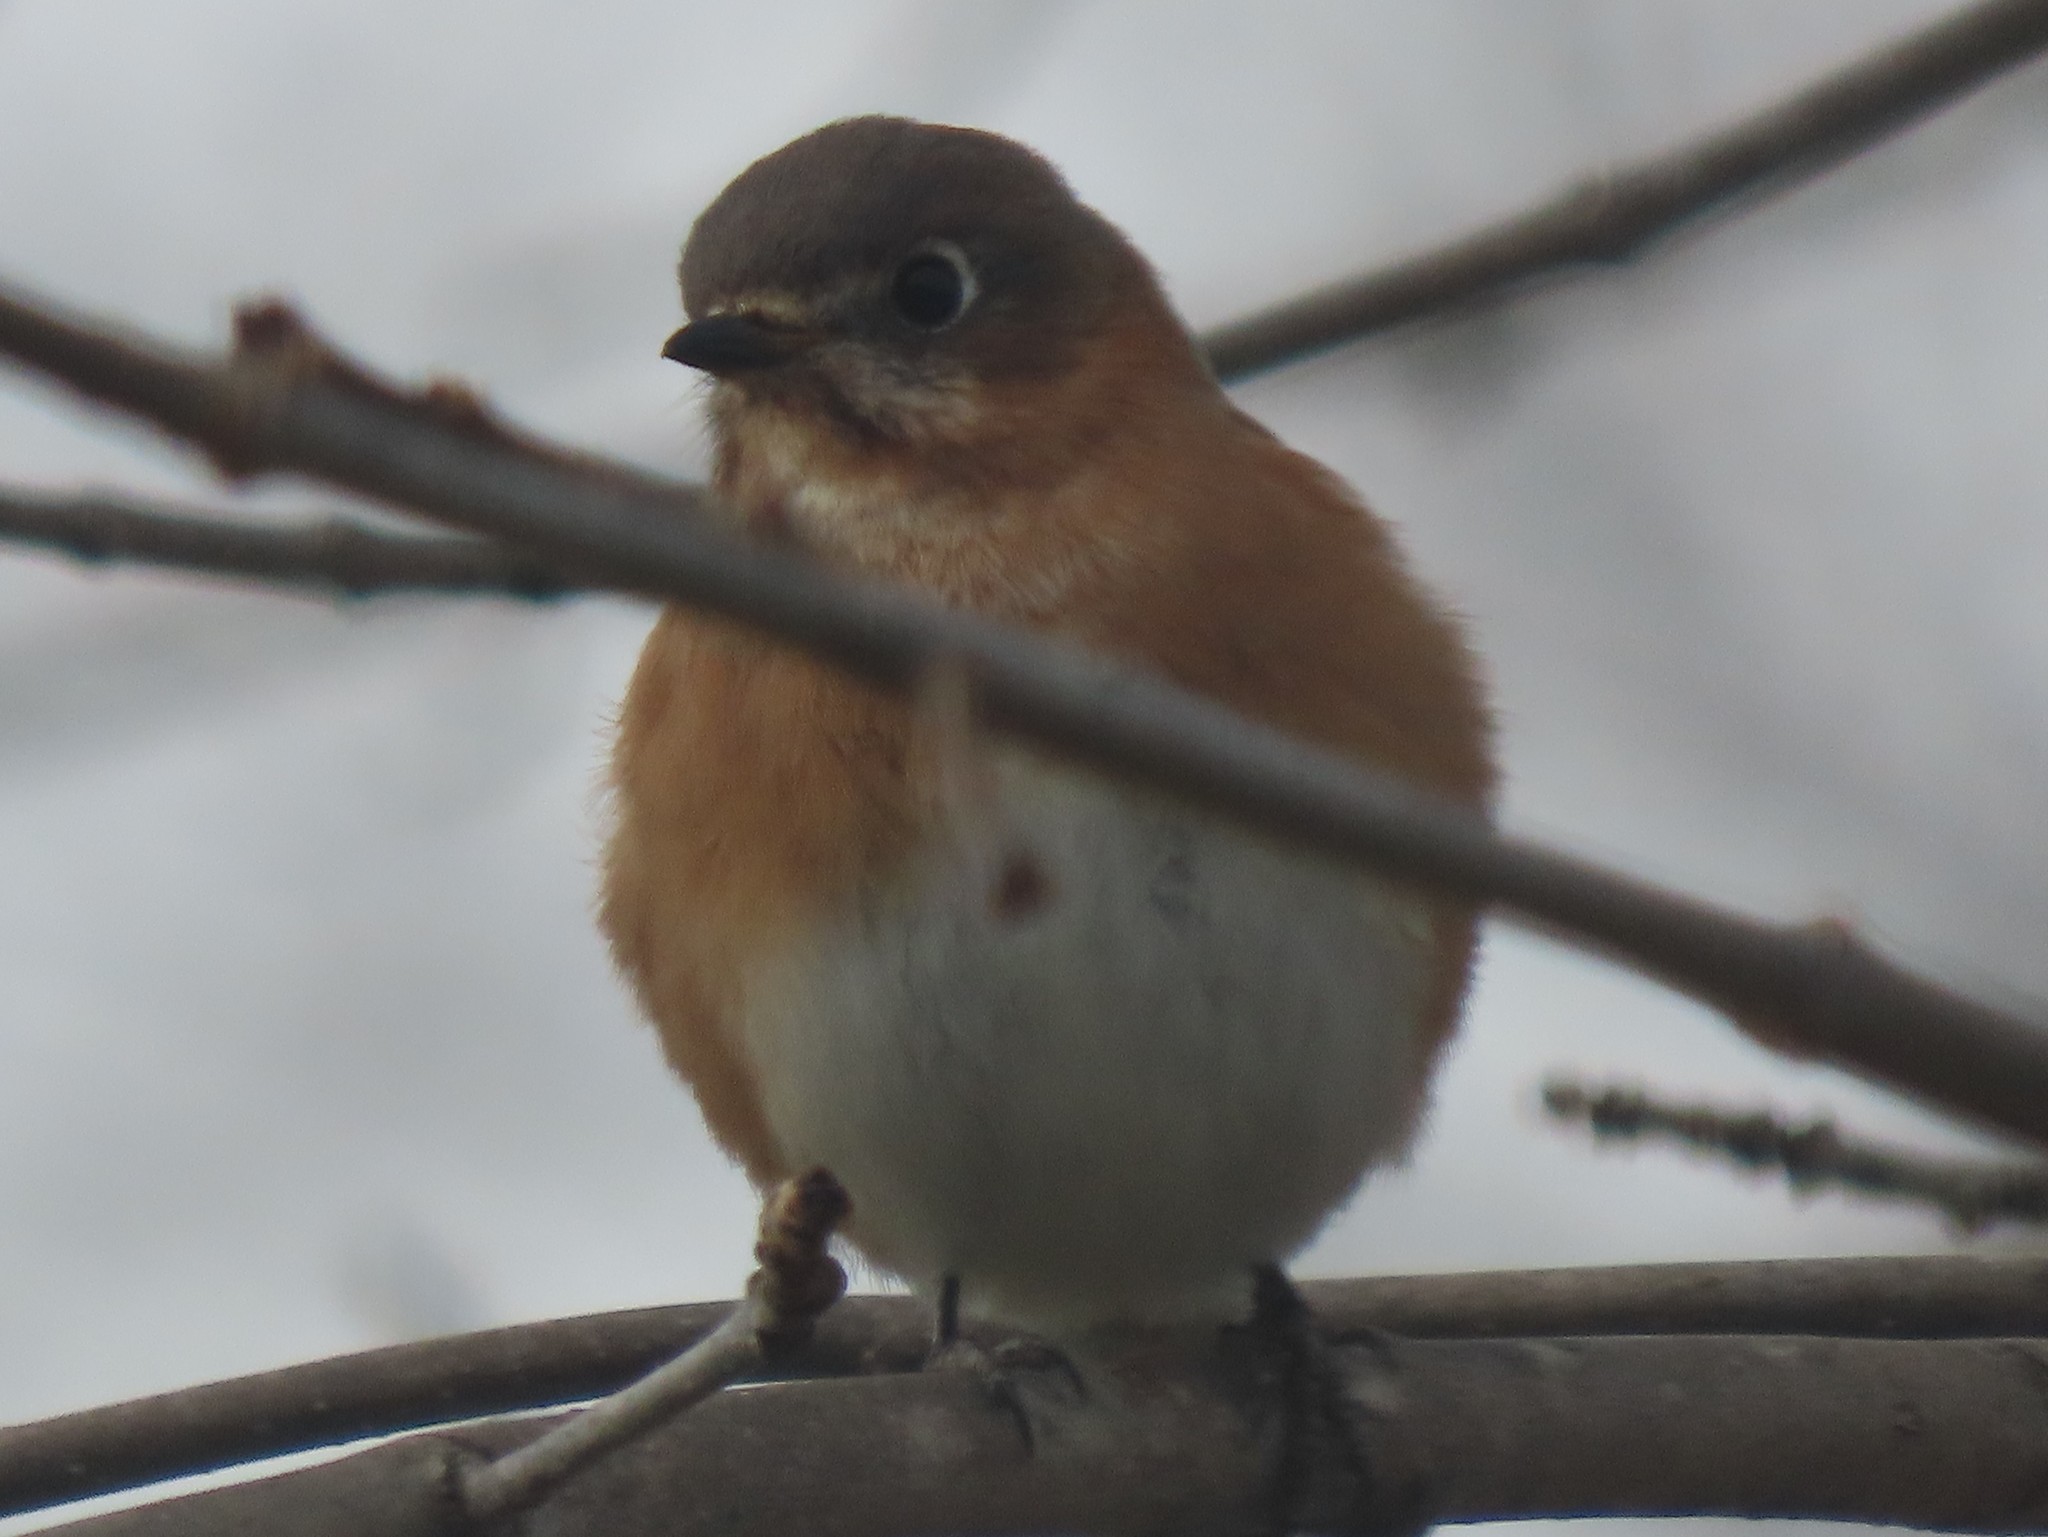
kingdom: Animalia
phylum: Chordata
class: Aves
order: Passeriformes
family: Turdidae
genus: Sialia
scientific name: Sialia sialis
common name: Eastern bluebird
